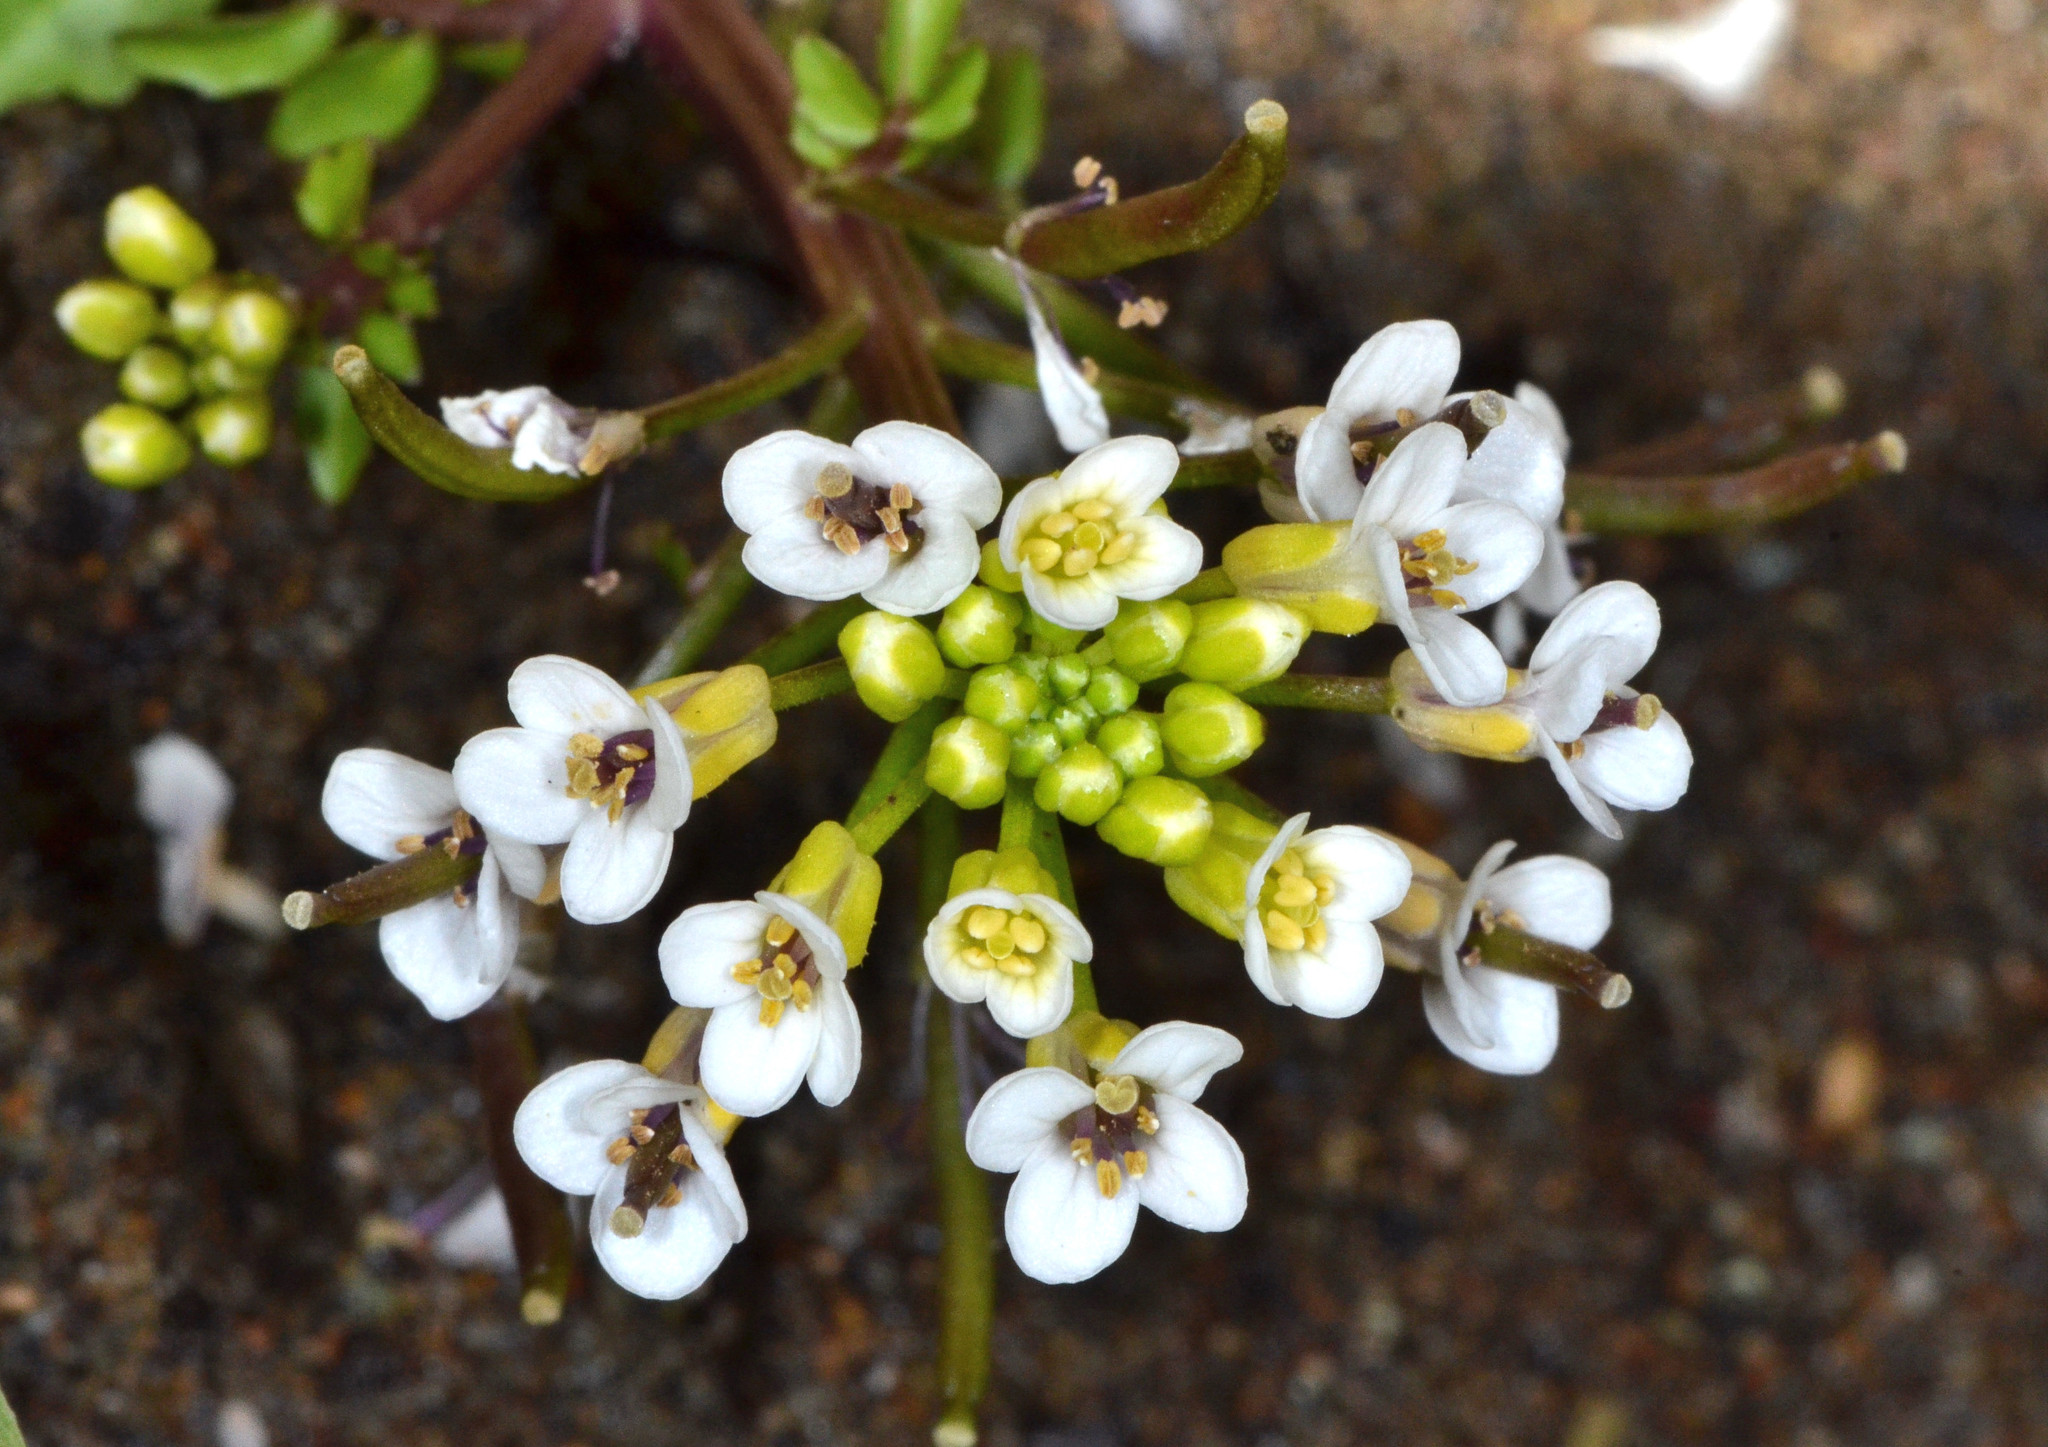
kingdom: Plantae
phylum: Tracheophyta
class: Magnoliopsida
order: Brassicales
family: Brassicaceae
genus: Nasturtium
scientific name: Nasturtium officinale
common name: Watercress
